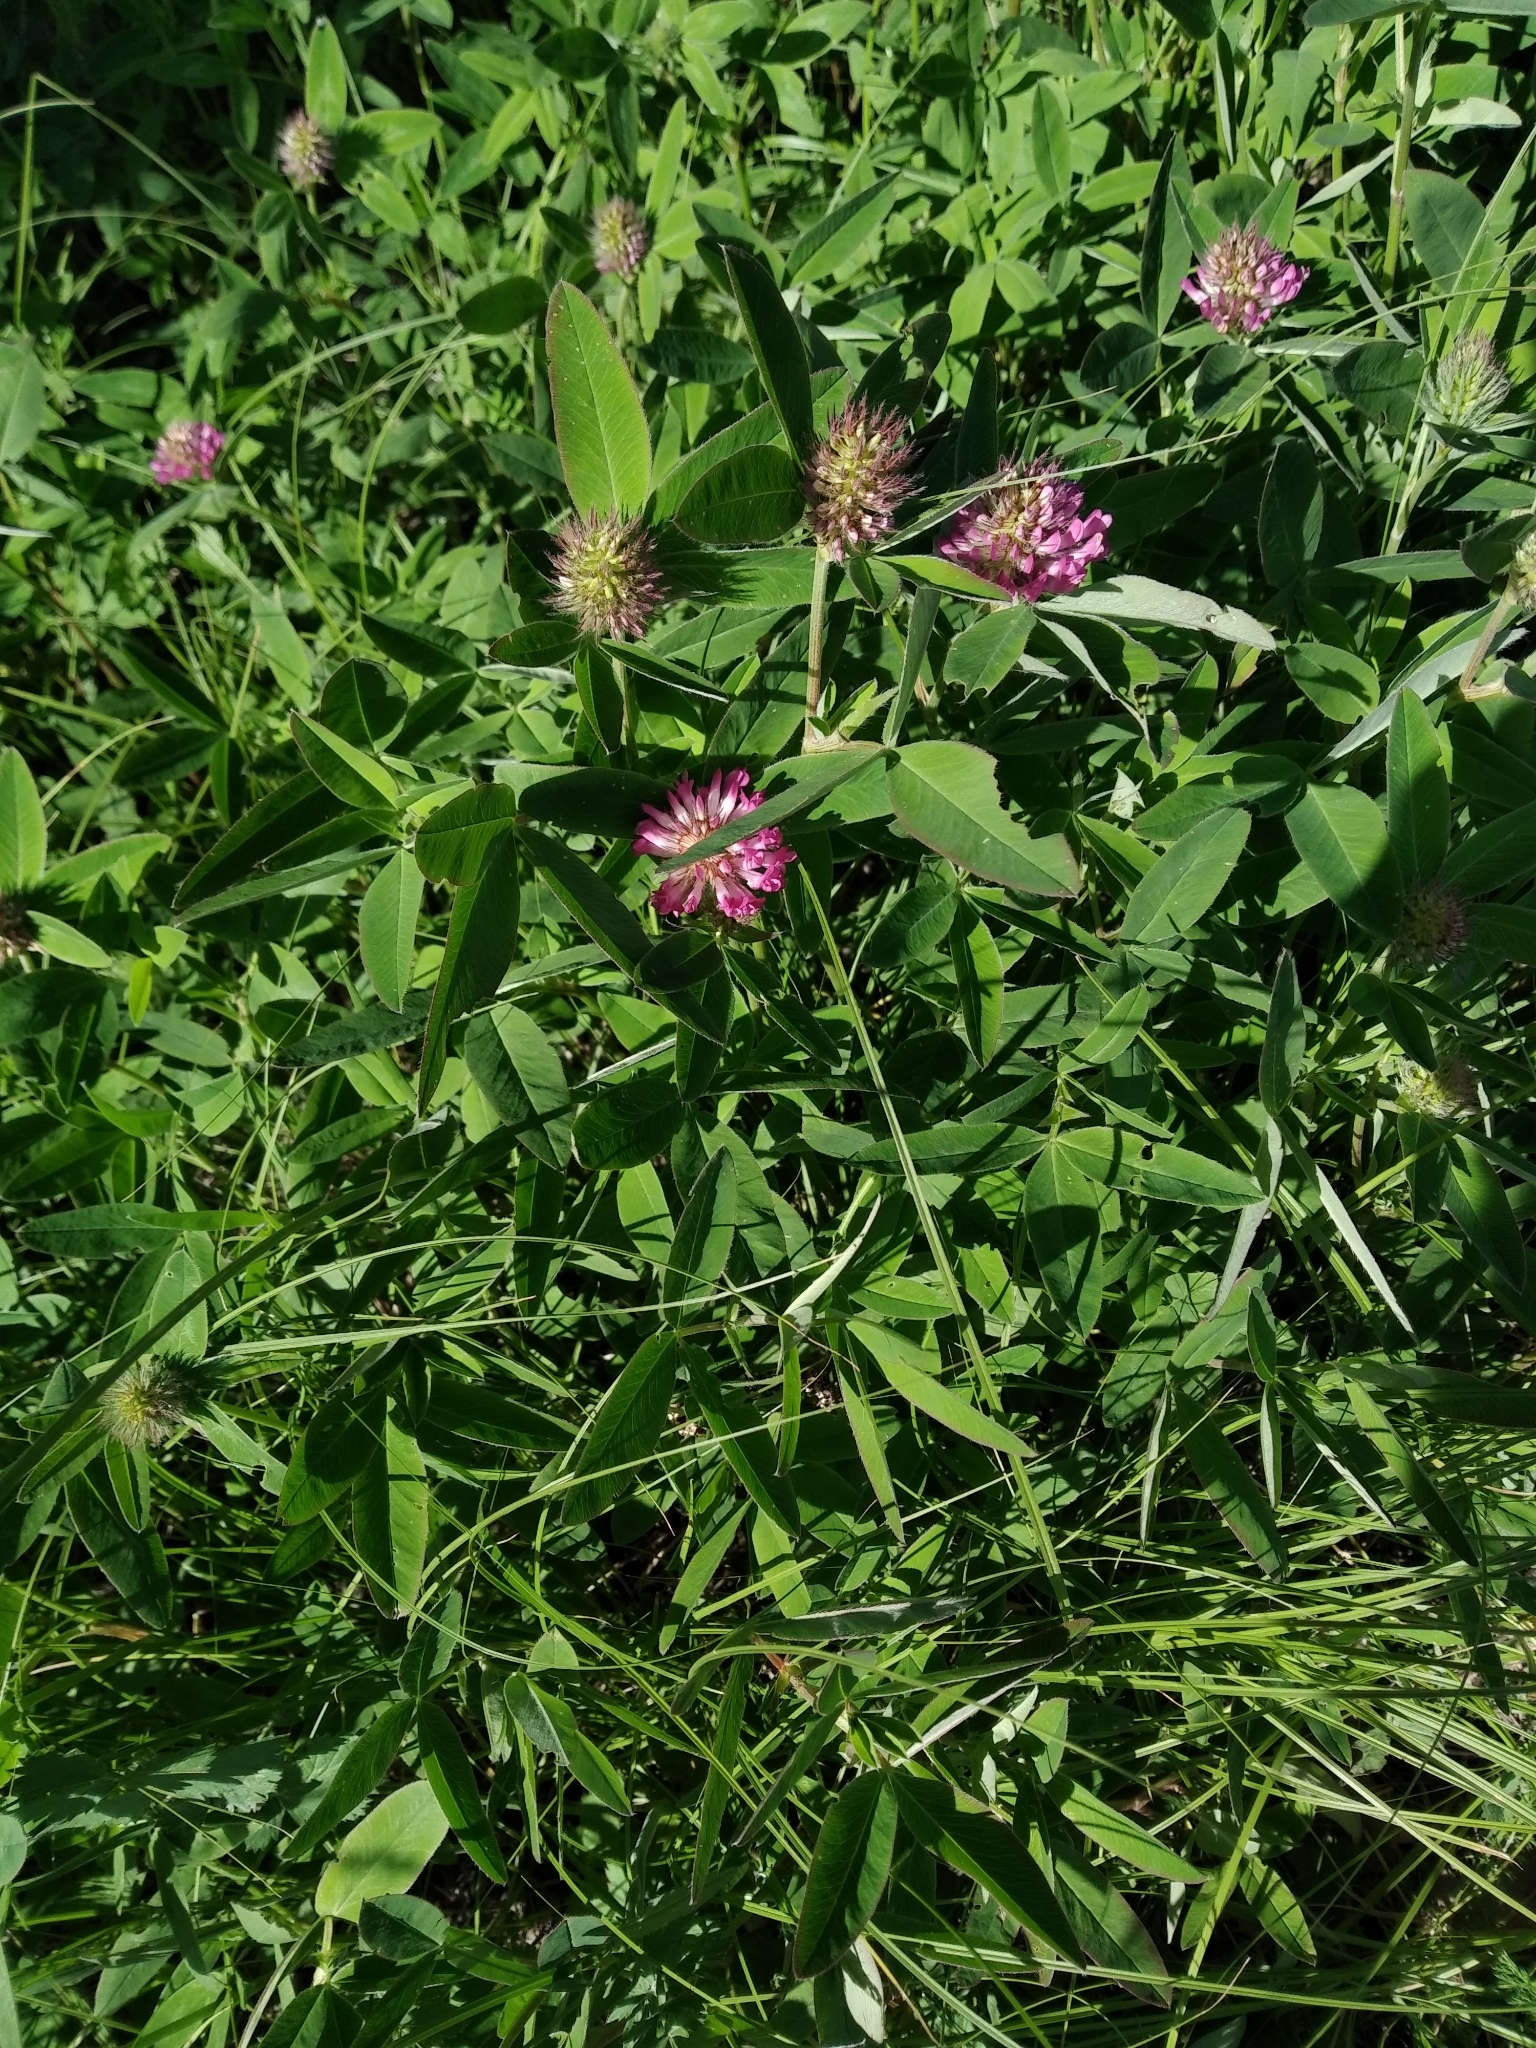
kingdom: Plantae
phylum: Tracheophyta
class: Magnoliopsida
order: Fabales
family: Fabaceae
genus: Trifolium
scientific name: Trifolium medium
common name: Zigzag clover
